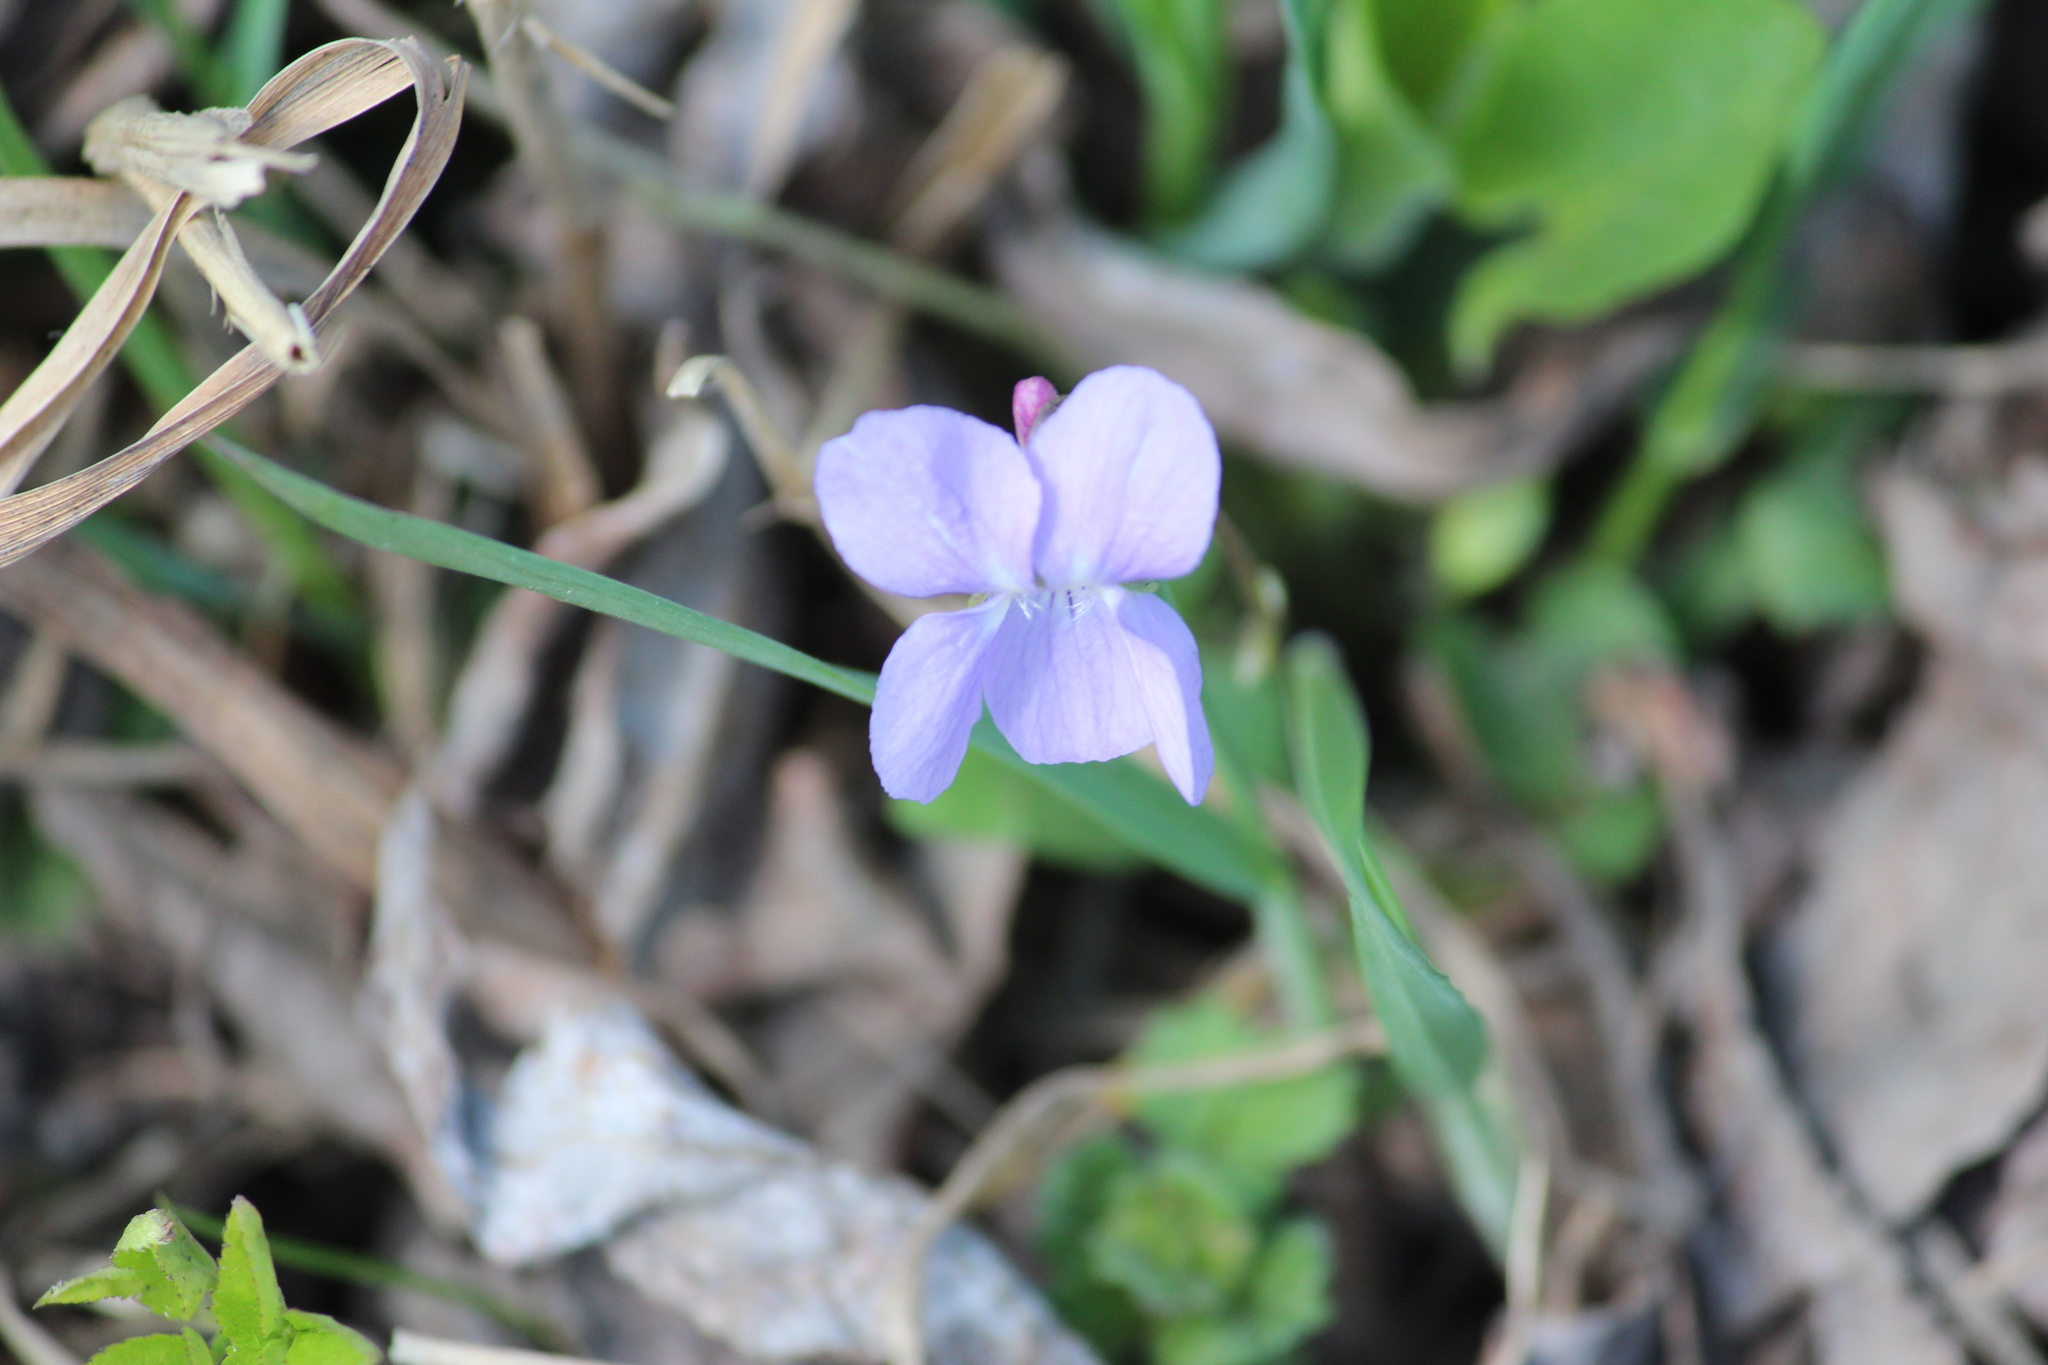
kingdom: Plantae
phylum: Tracheophyta
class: Magnoliopsida
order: Malpighiales
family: Violaceae
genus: Viola
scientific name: Viola hirta
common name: Hairy violet
